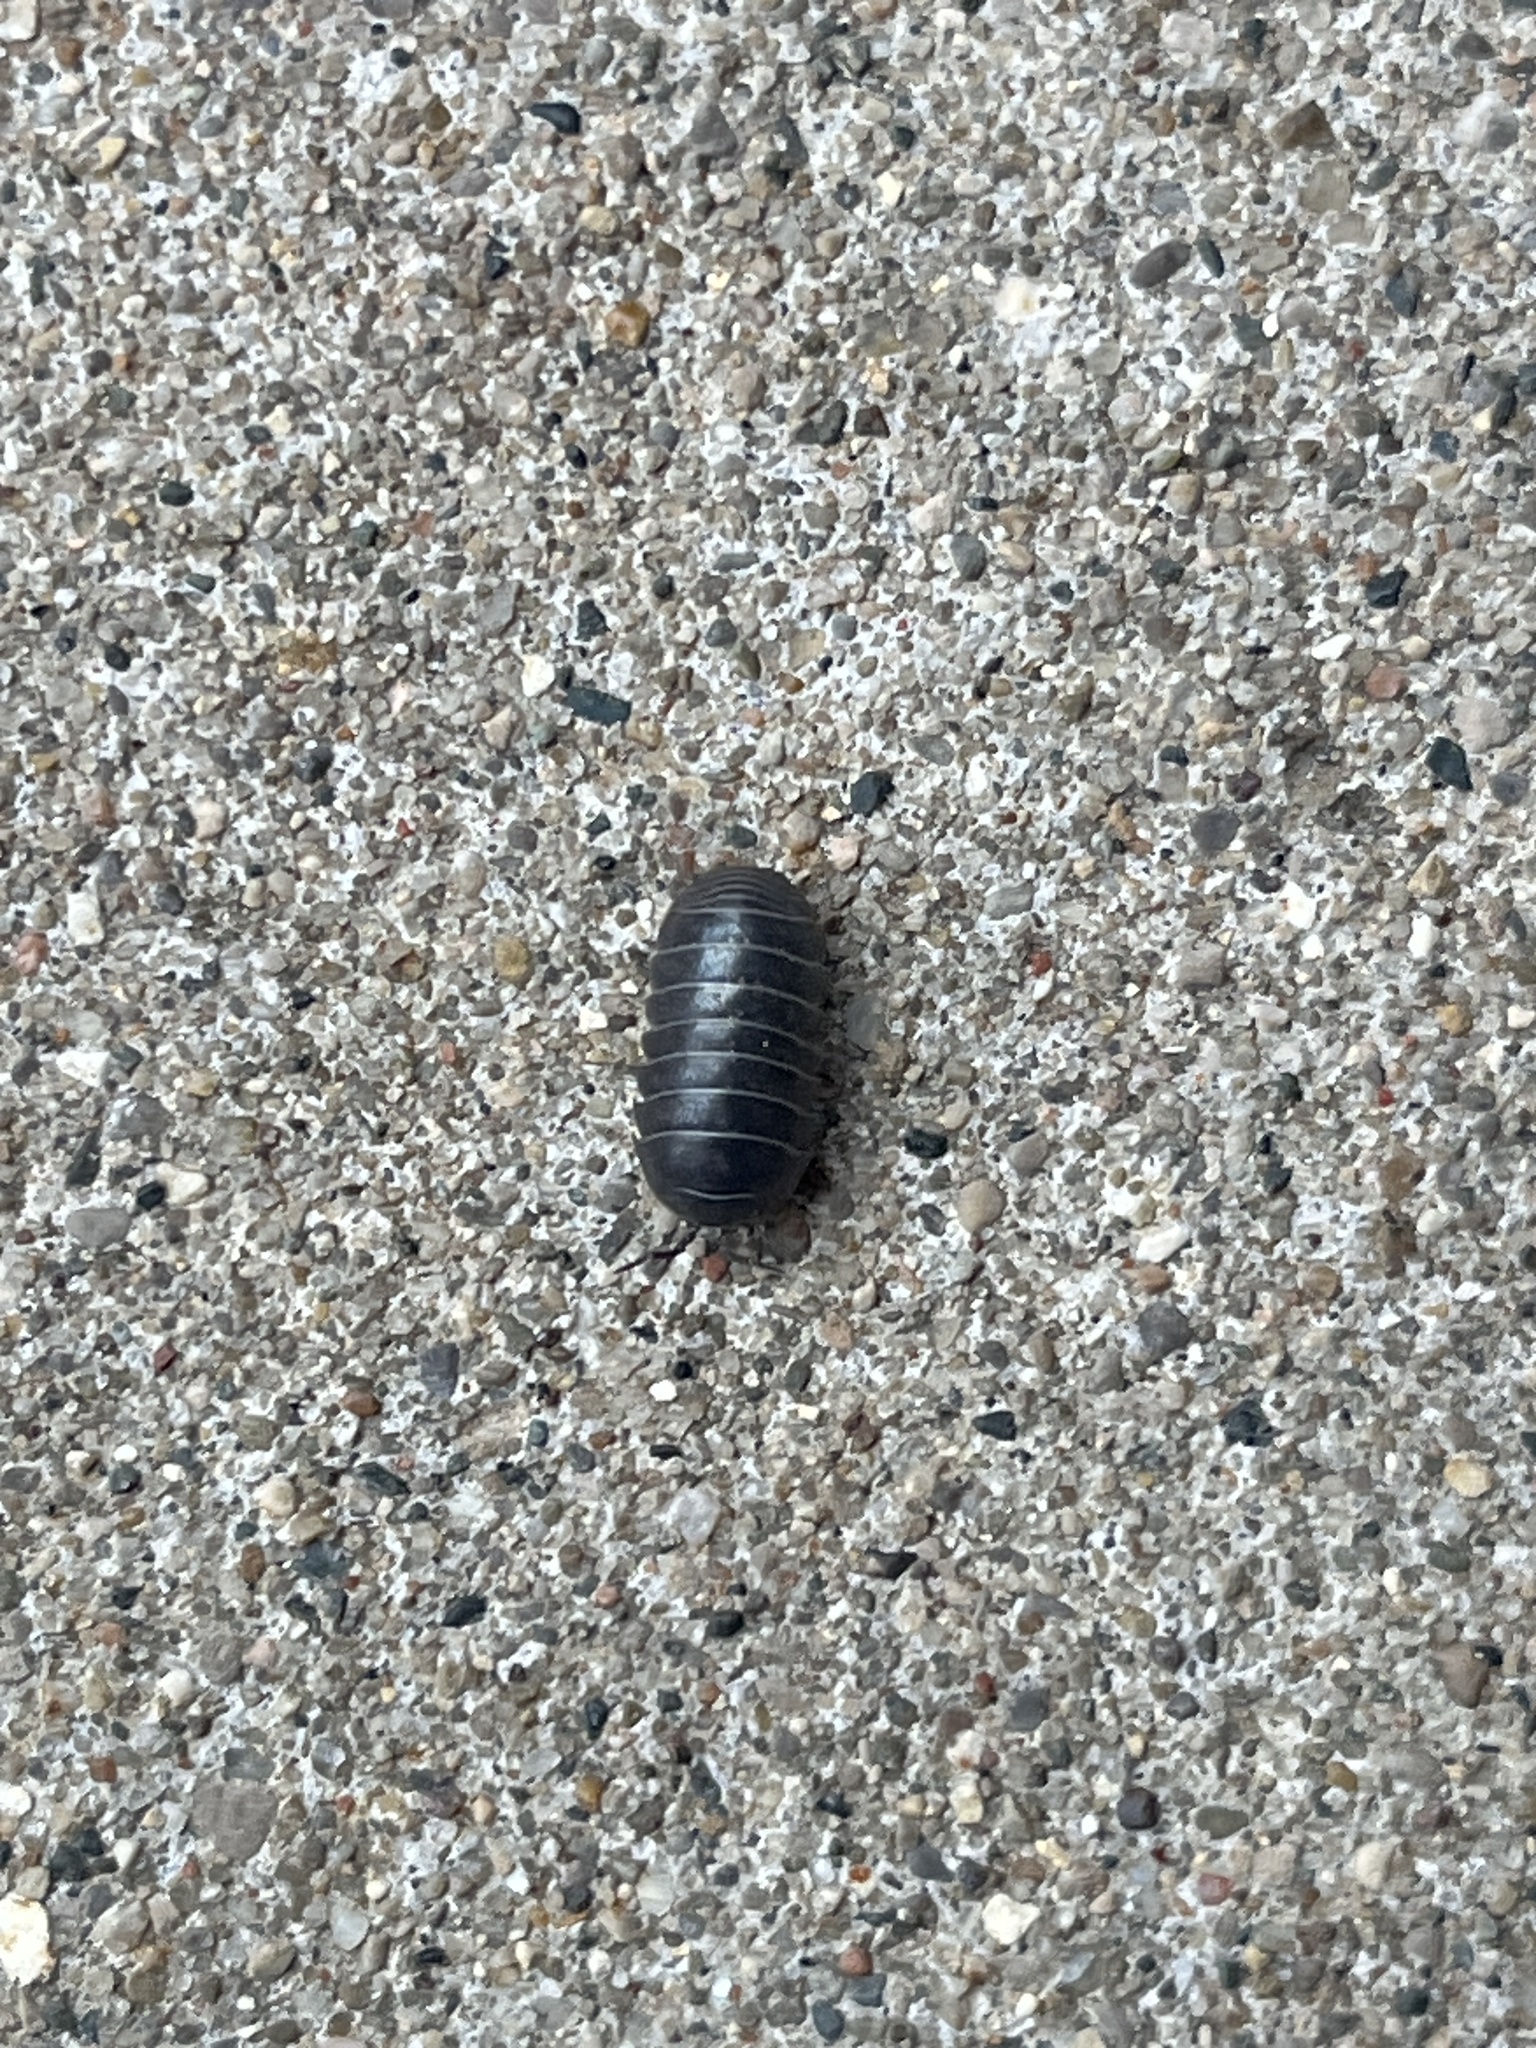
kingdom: Animalia
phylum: Arthropoda
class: Malacostraca
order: Isopoda
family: Armadillidiidae
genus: Armadillidium
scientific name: Armadillidium vulgare
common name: Common pill woodlouse
